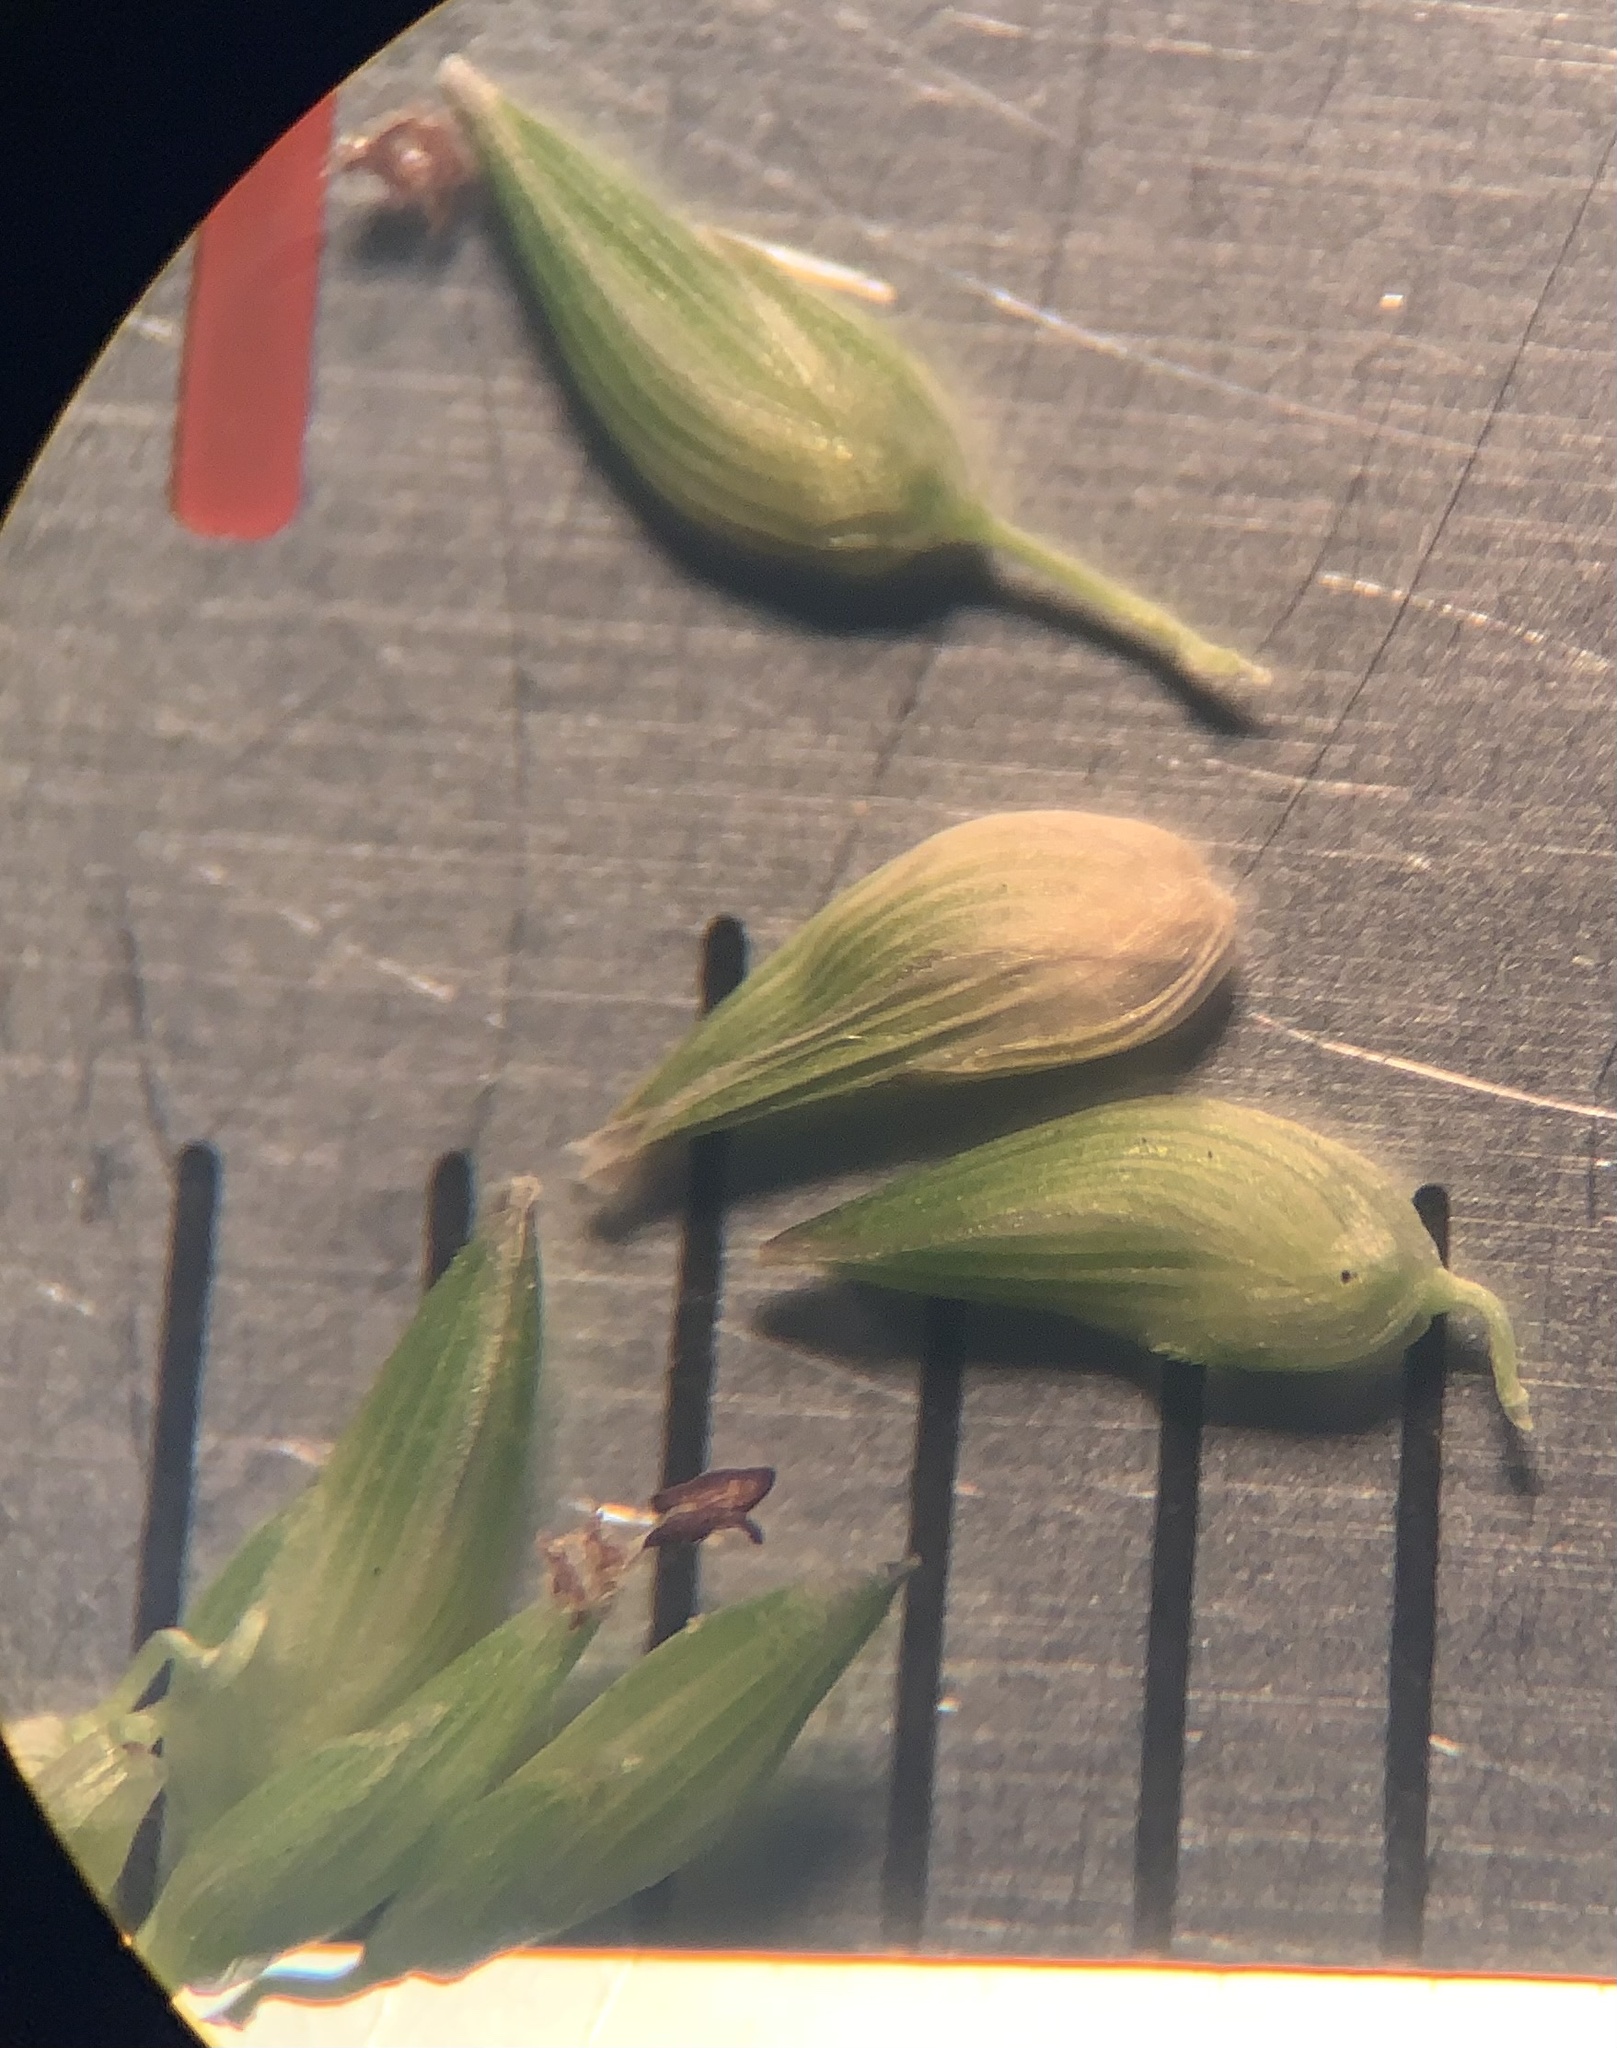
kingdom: Plantae
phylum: Tracheophyta
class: Liliopsida
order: Poales
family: Poaceae
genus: Sacciolepis
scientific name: Sacciolepis indica
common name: Glenwoodgrass
